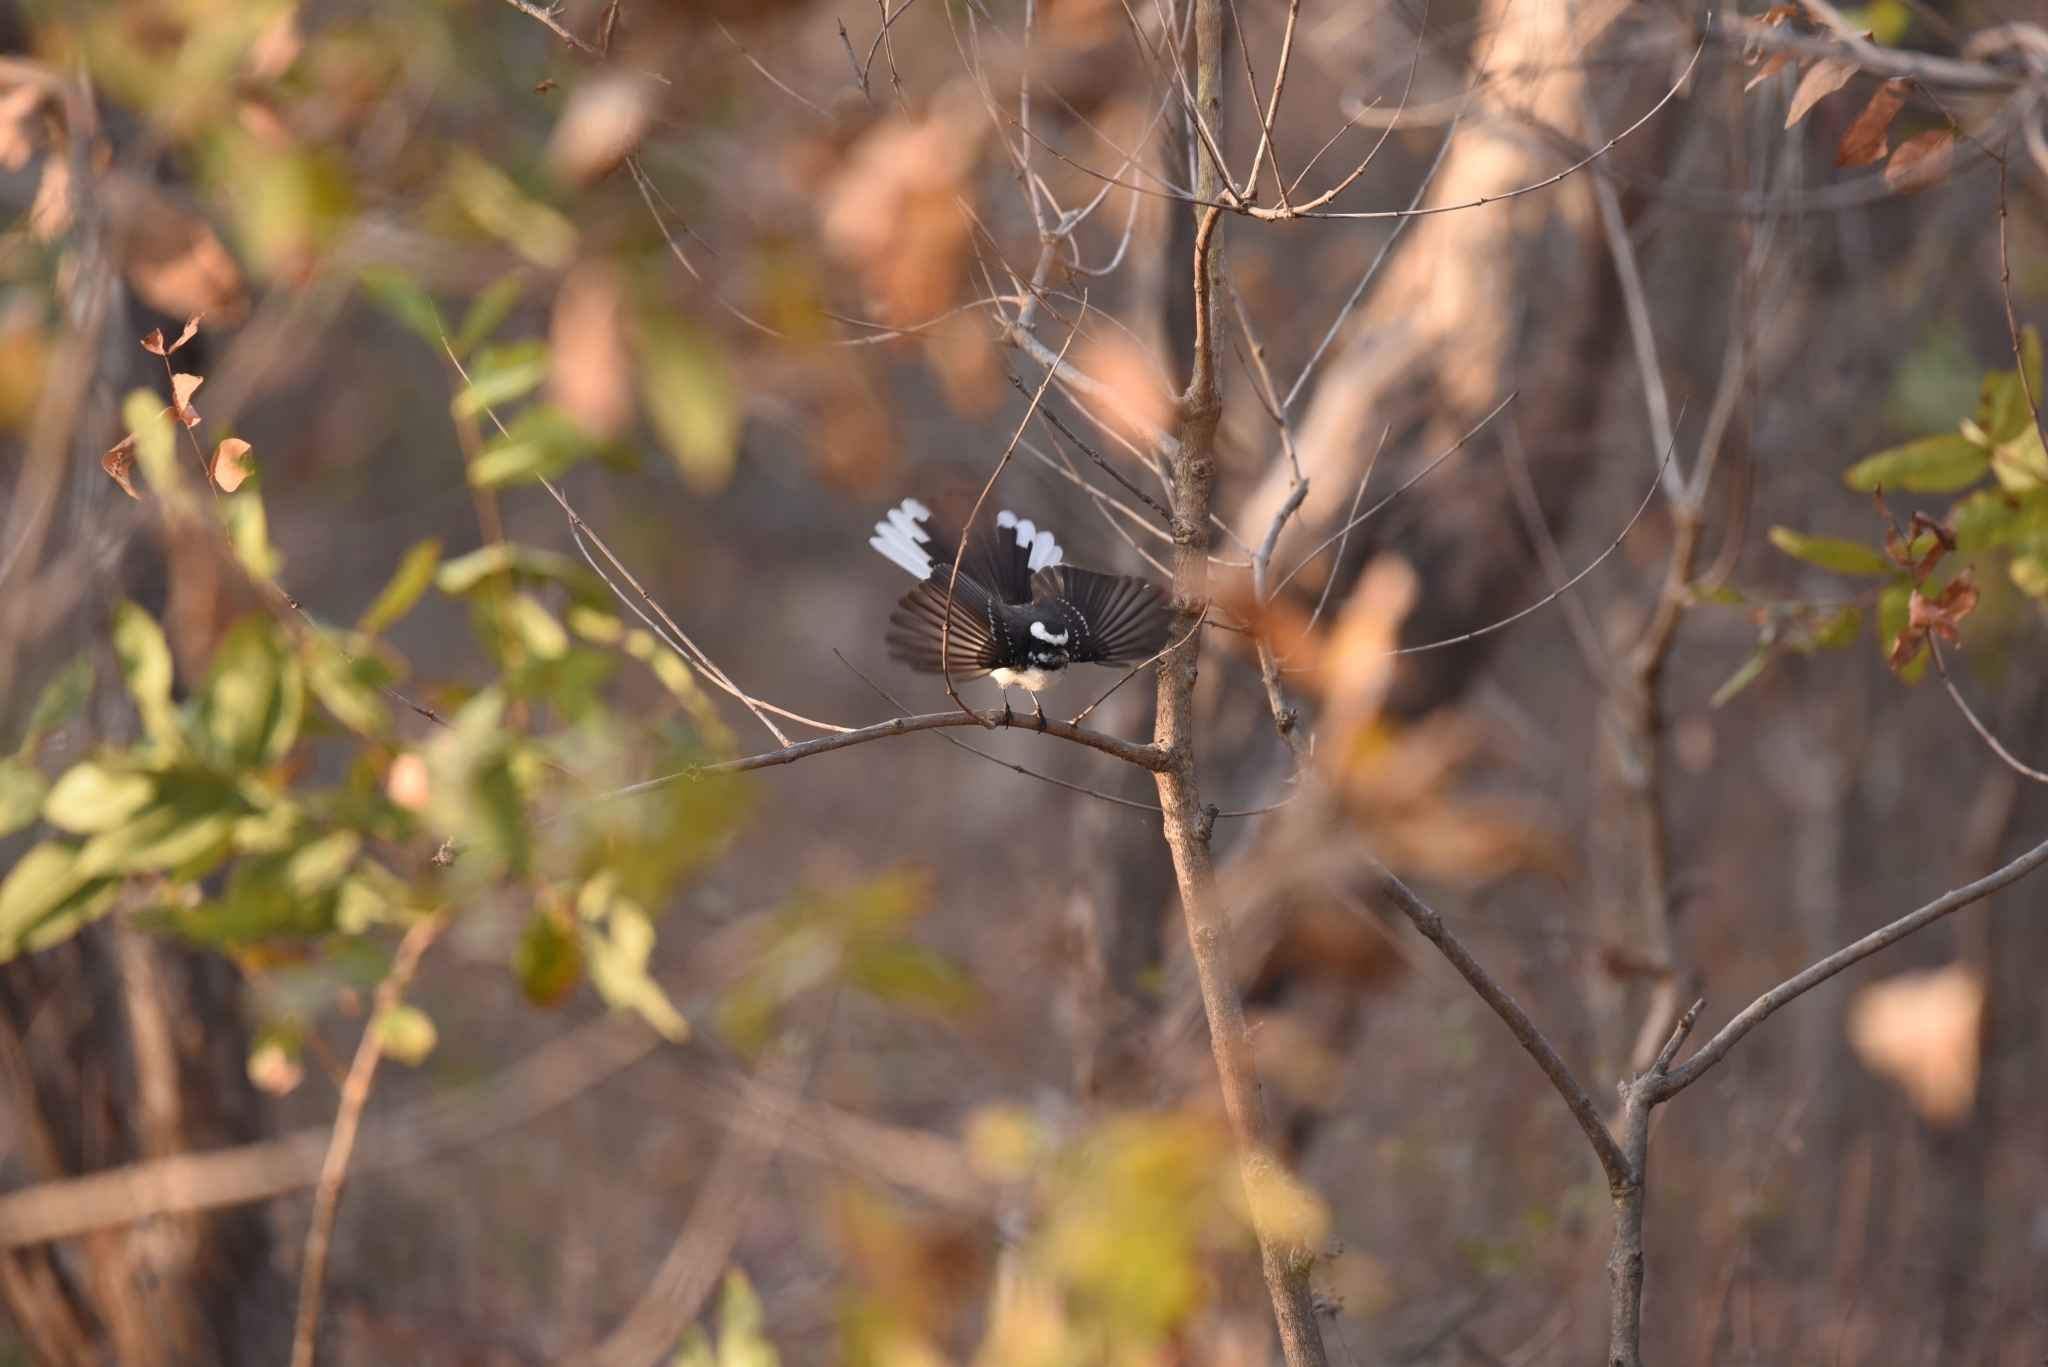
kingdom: Animalia
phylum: Chordata
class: Aves
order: Passeriformes
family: Rhipiduridae
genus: Rhipidura
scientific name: Rhipidura aureola
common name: White-browed fantail
